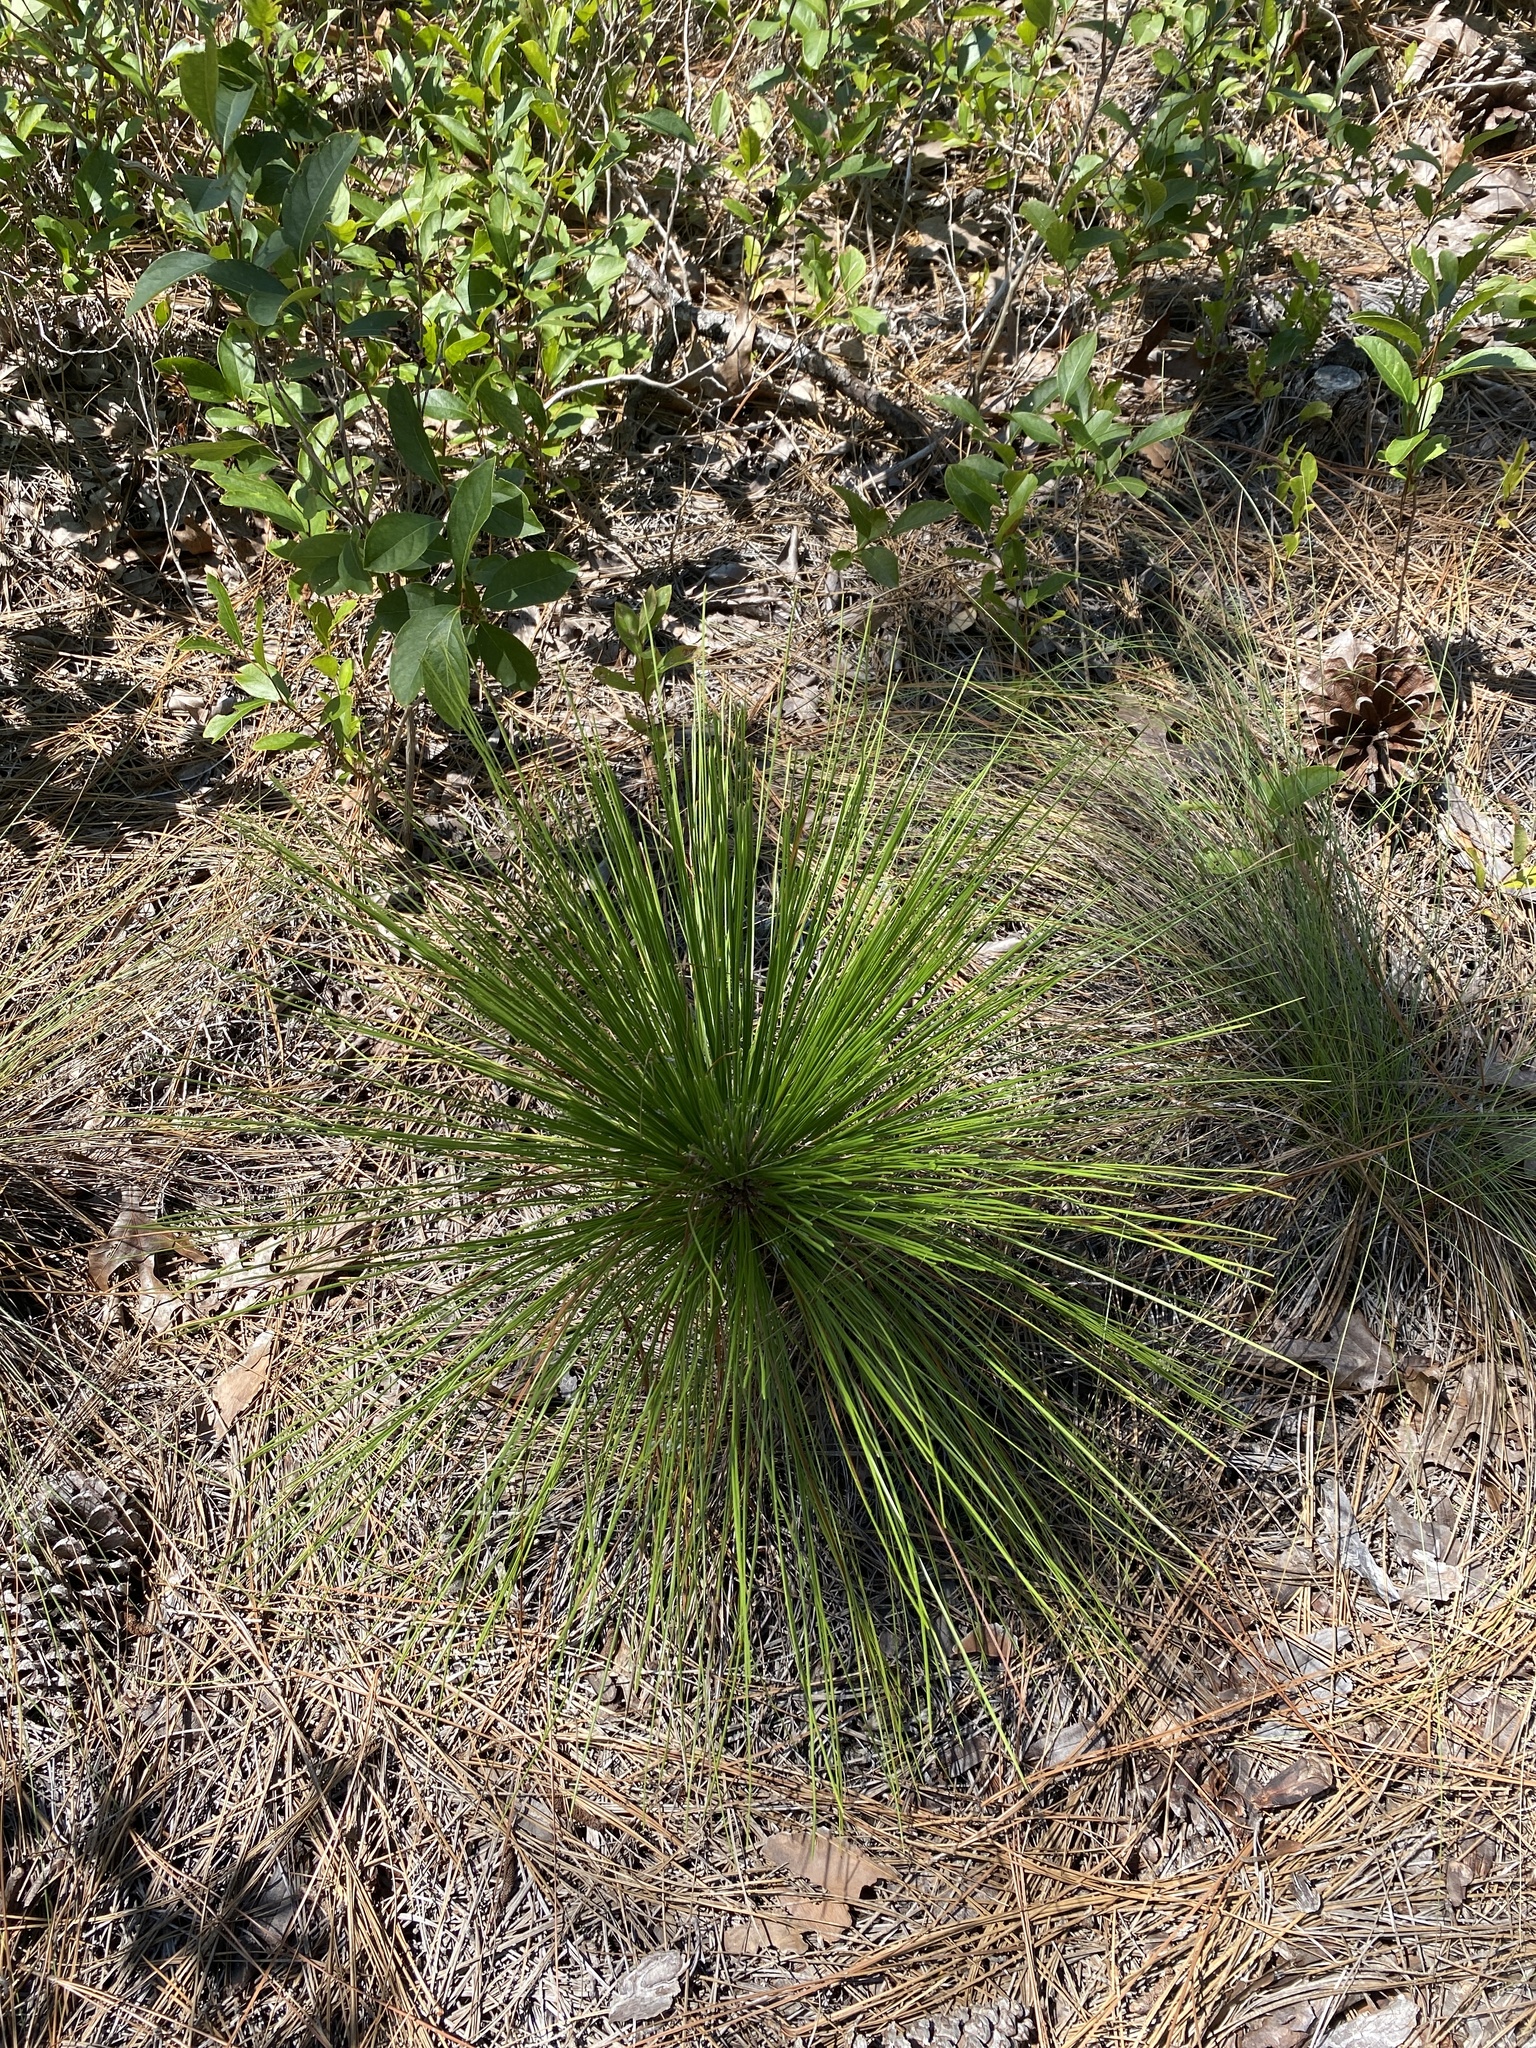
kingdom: Plantae
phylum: Tracheophyta
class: Pinopsida
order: Pinales
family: Pinaceae
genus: Pinus
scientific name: Pinus palustris
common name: Longleaf pine
